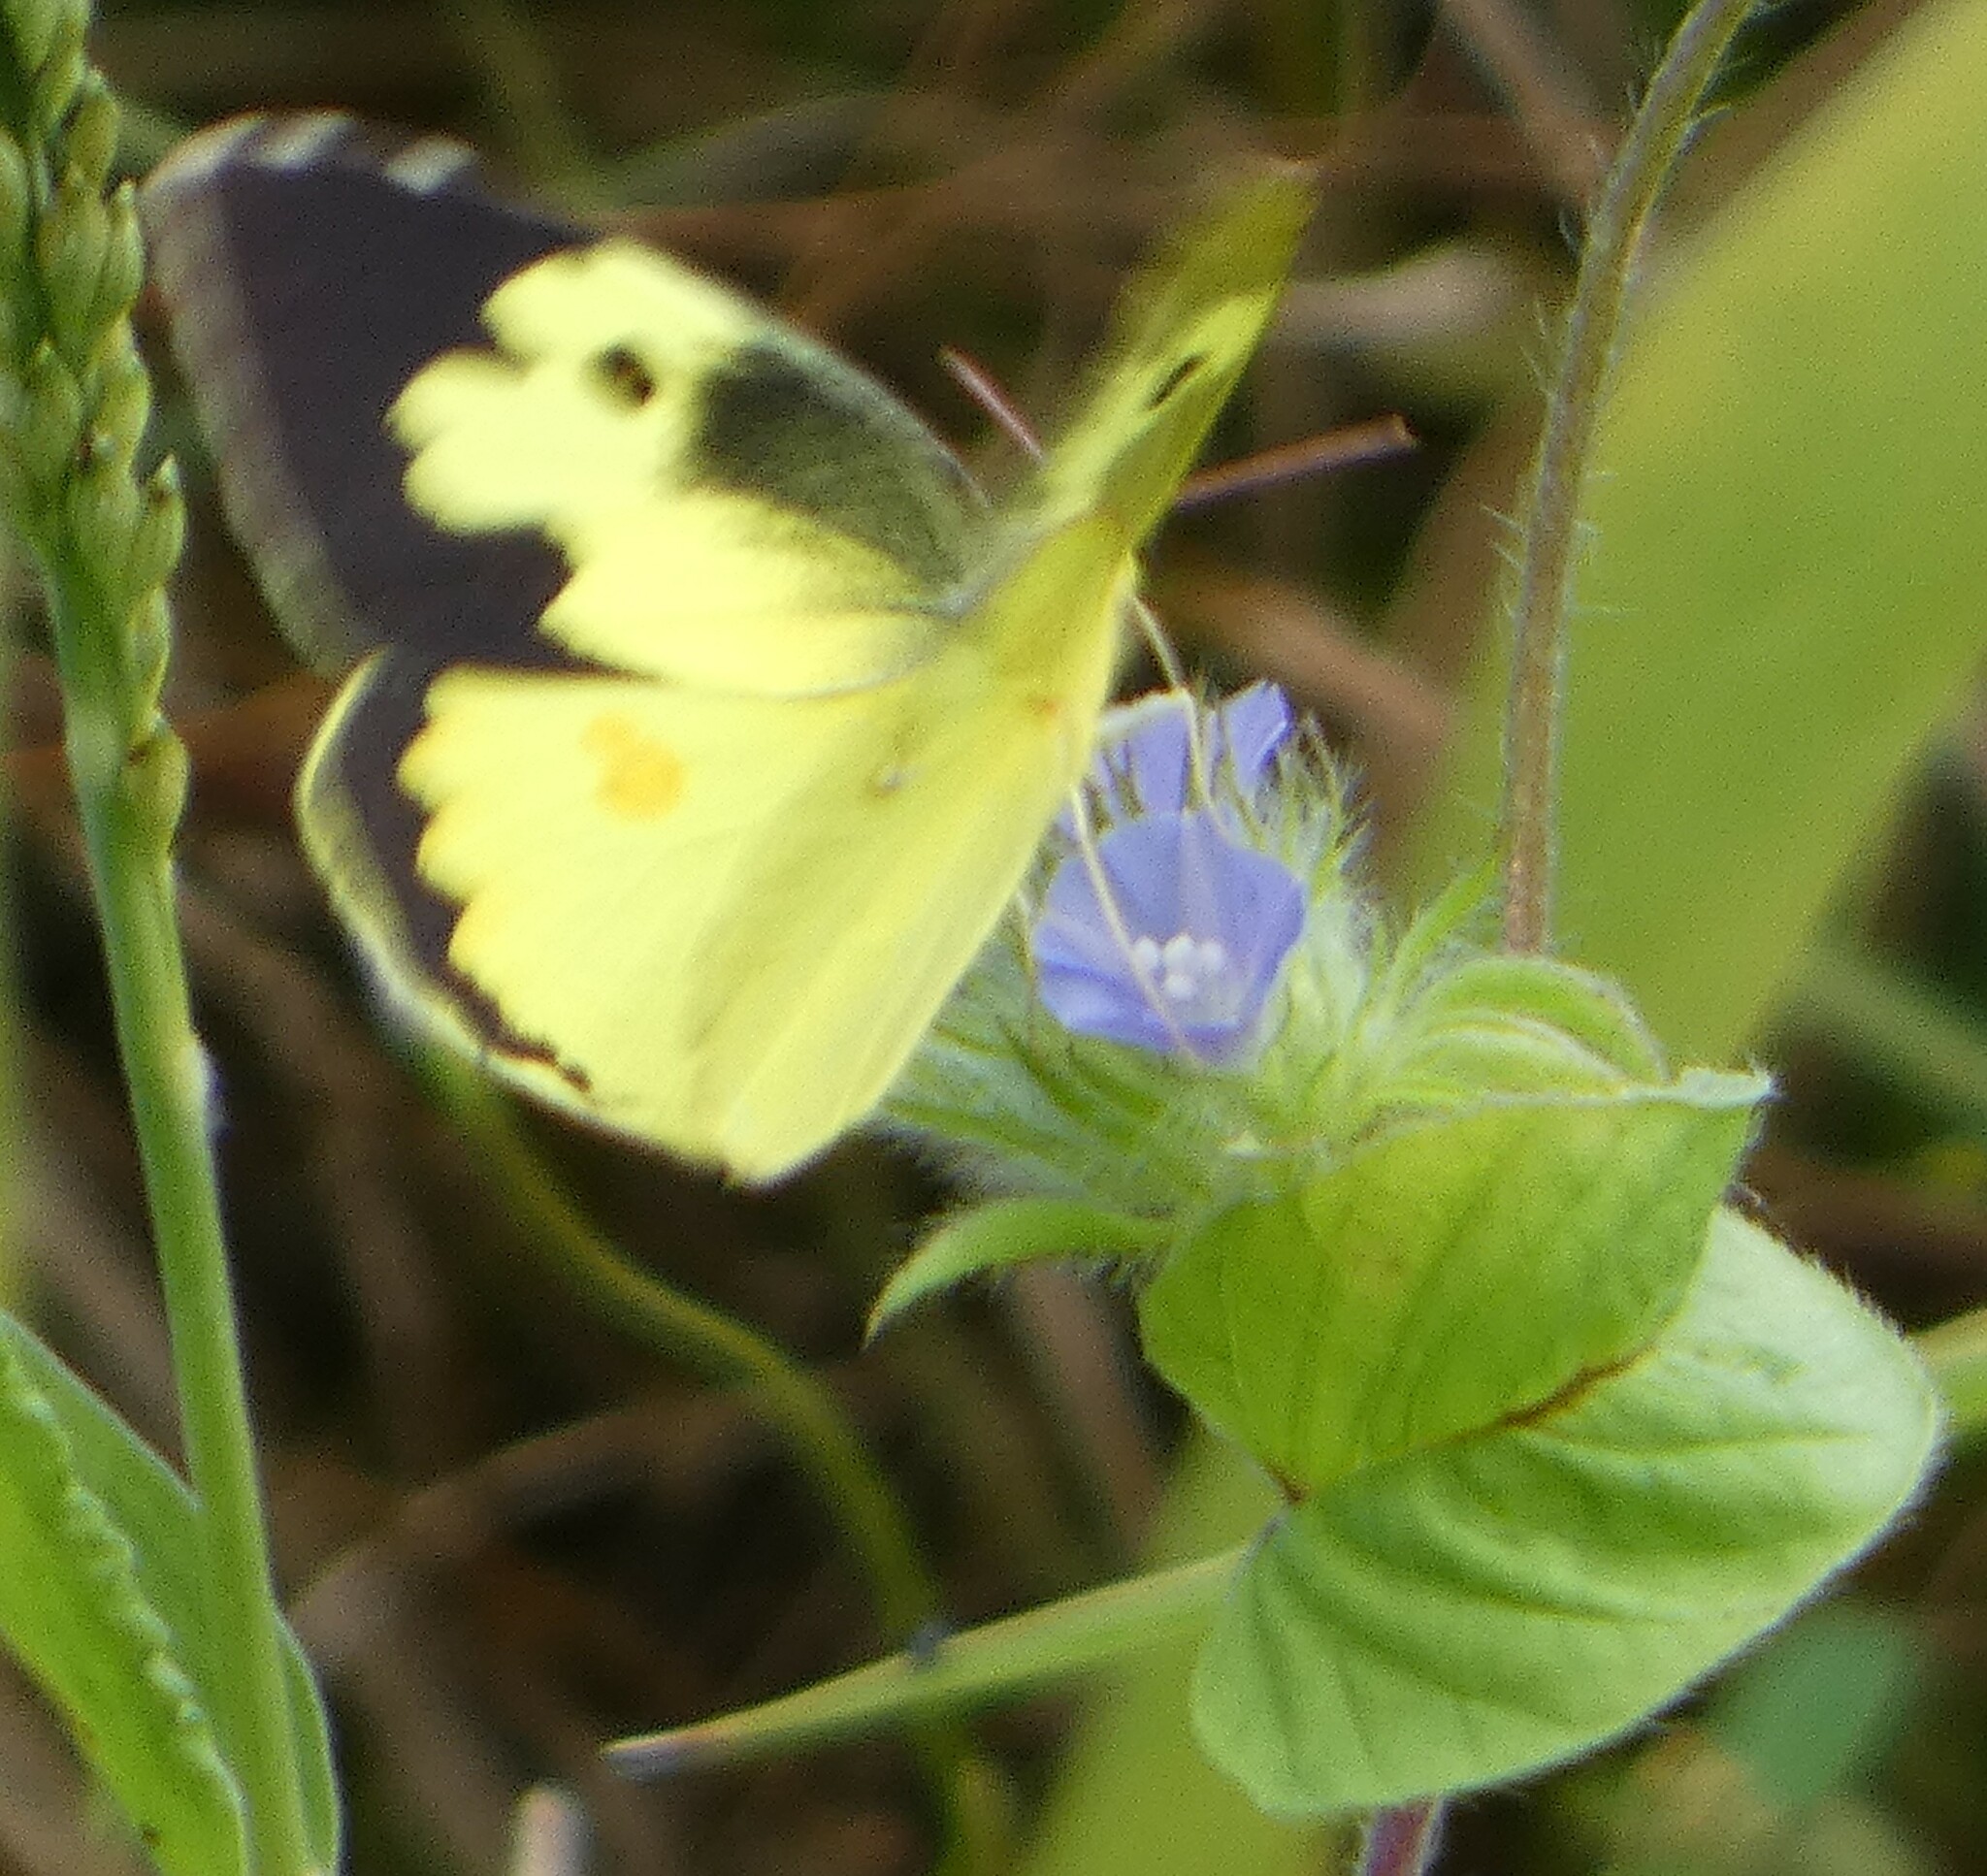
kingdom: Animalia
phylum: Arthropoda
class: Insecta
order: Lepidoptera
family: Pieridae
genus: Zerene
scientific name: Zerene cesonia
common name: Southern dogface
